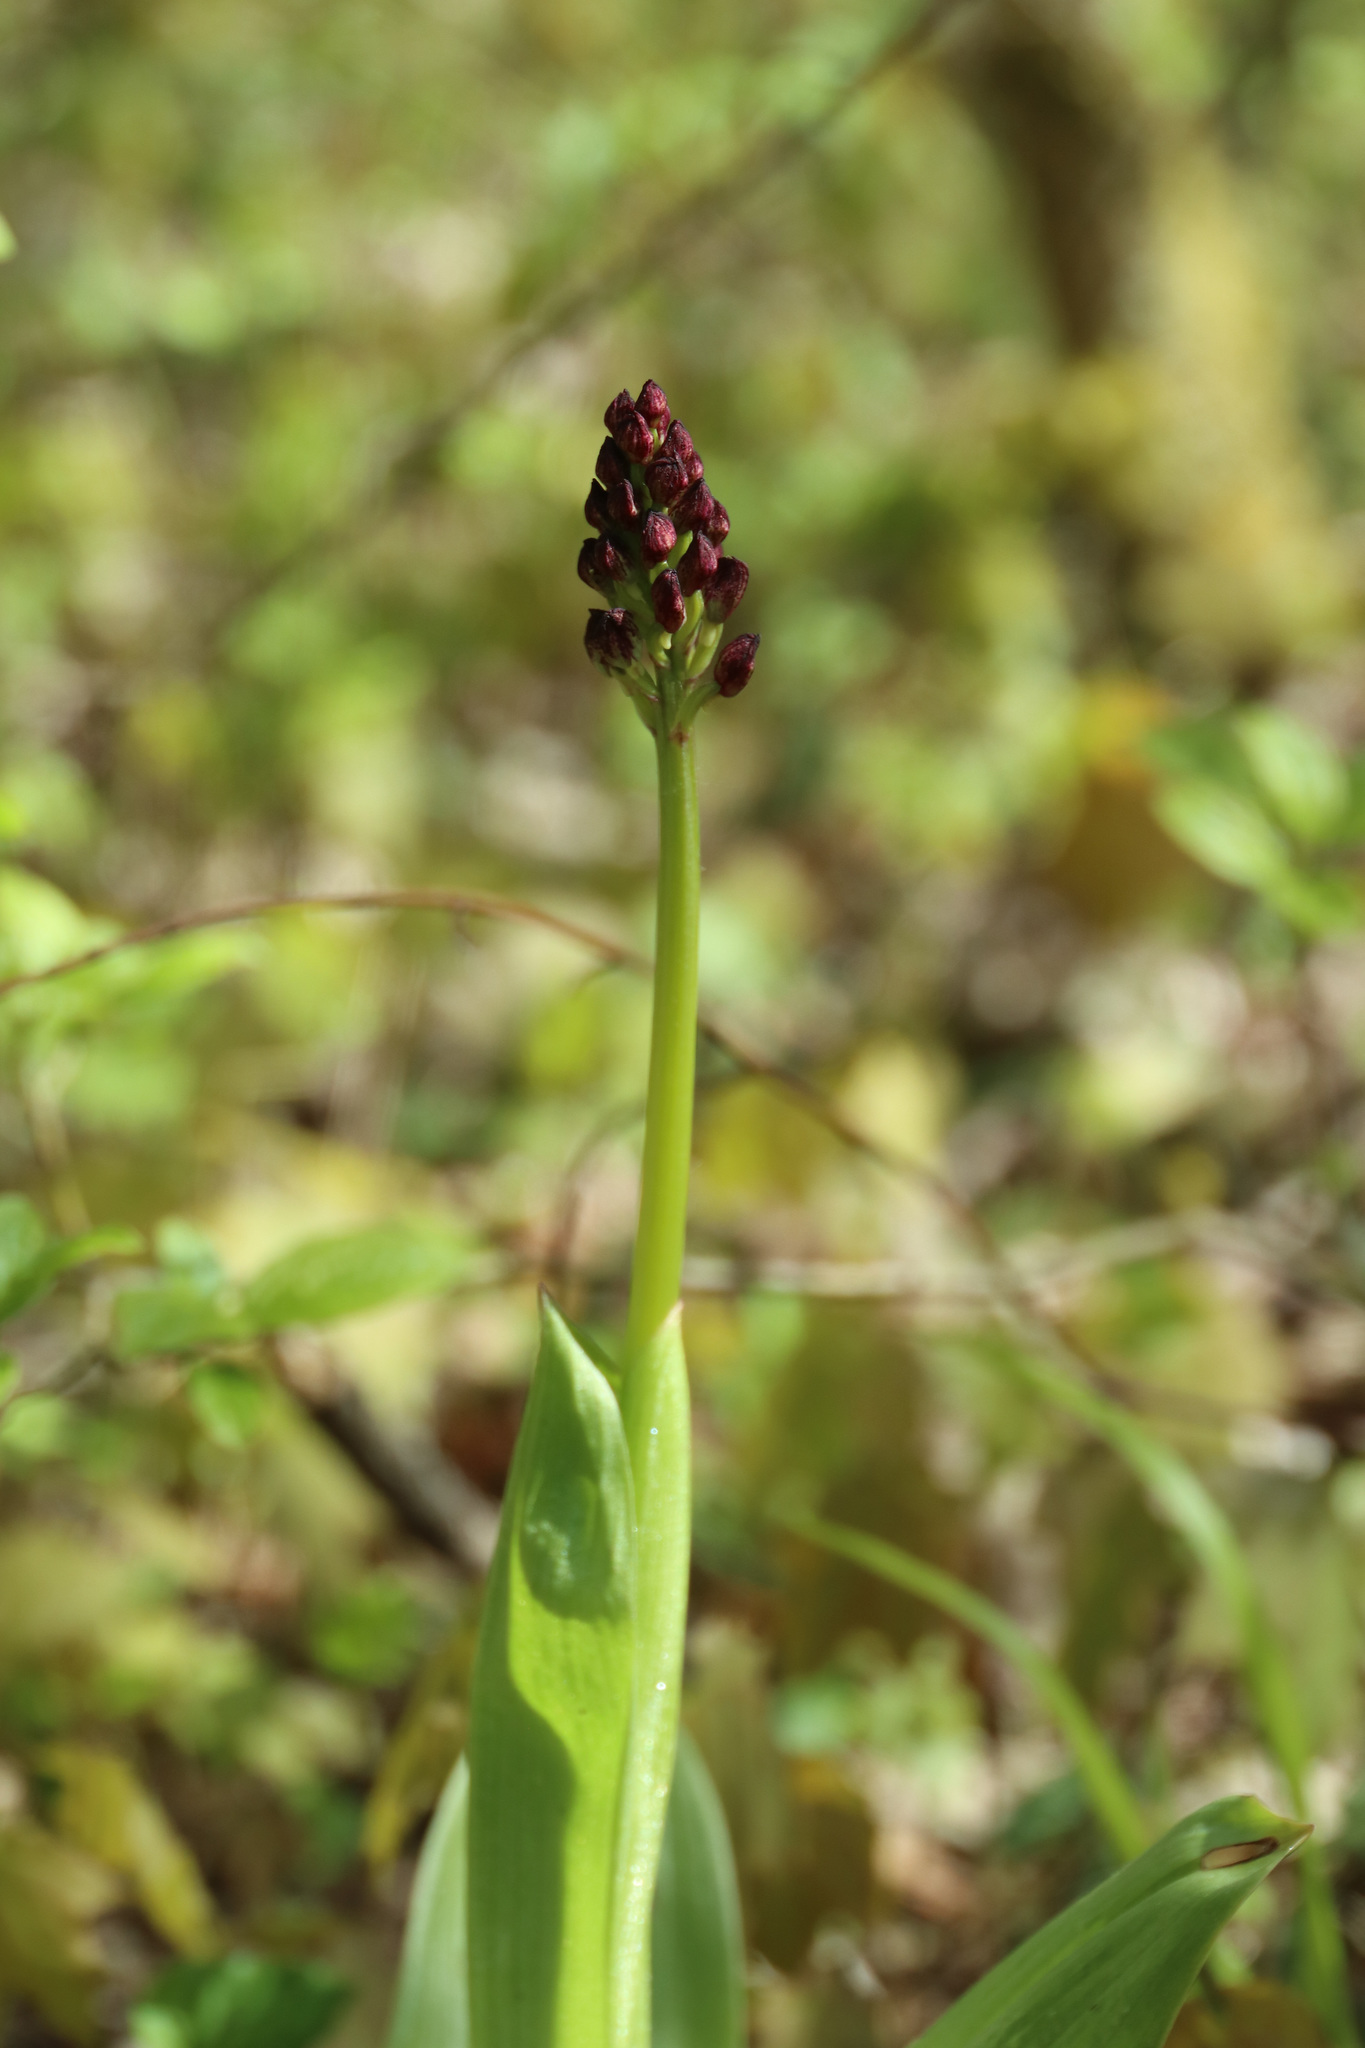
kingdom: Plantae
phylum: Tracheophyta
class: Liliopsida
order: Asparagales
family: Orchidaceae
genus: Orchis
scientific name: Orchis purpurea
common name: Lady orchid
